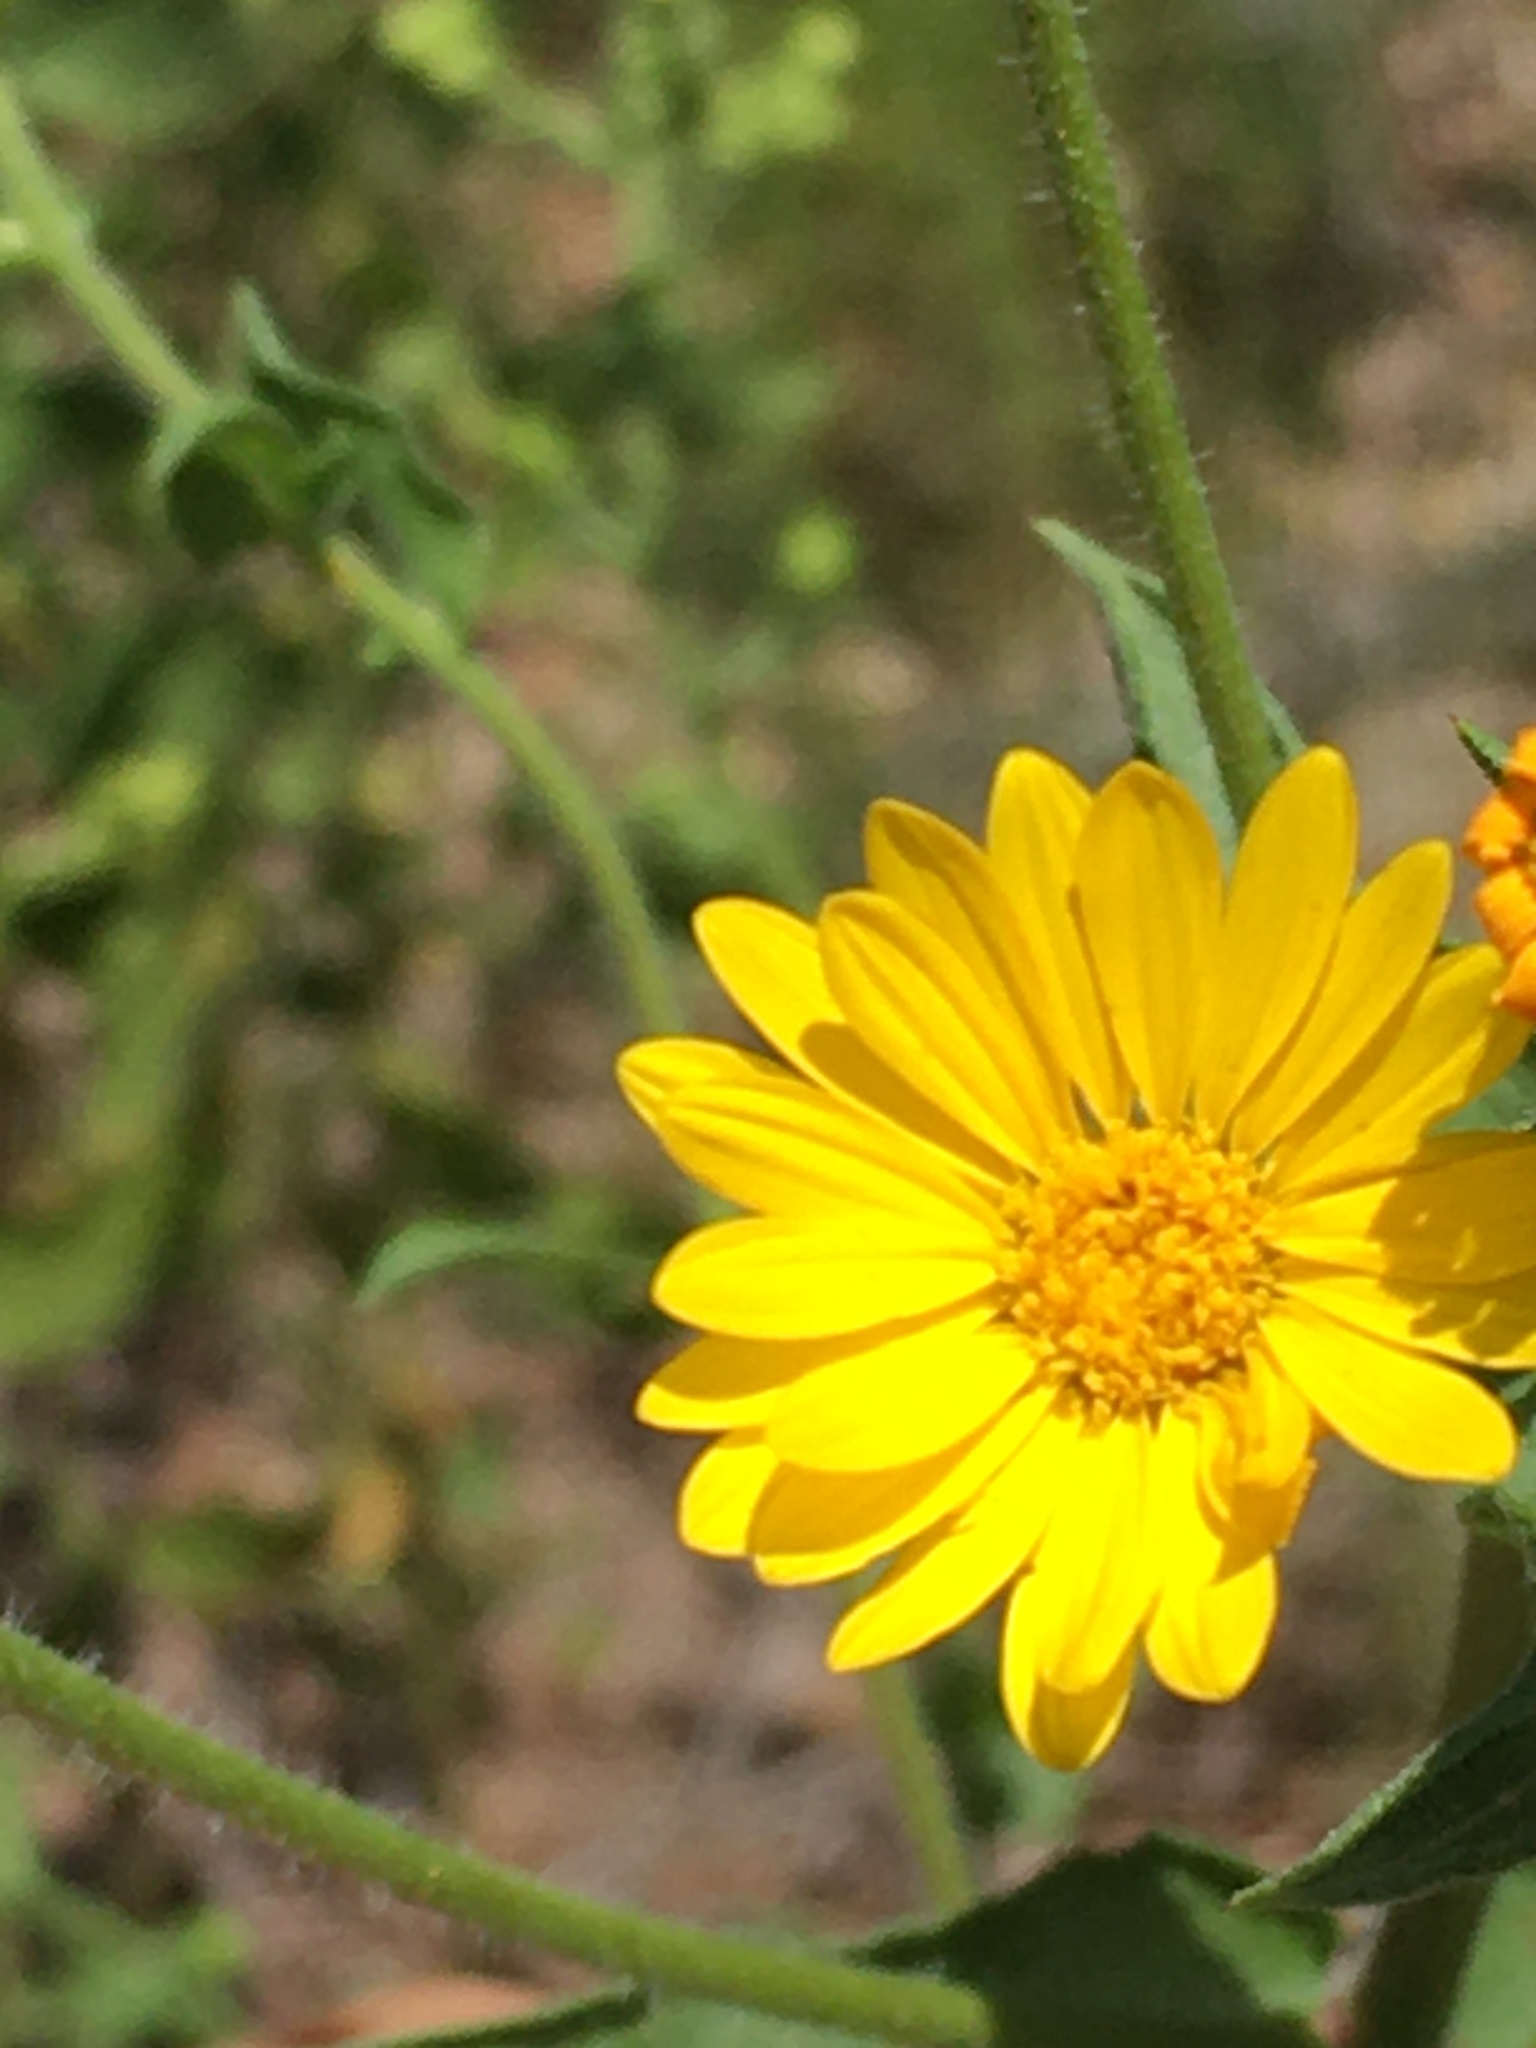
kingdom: Plantae
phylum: Tracheophyta
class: Magnoliopsida
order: Asterales
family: Asteraceae
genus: Heterotheca
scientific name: Heterotheca subaxillaris
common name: Camphorweed
